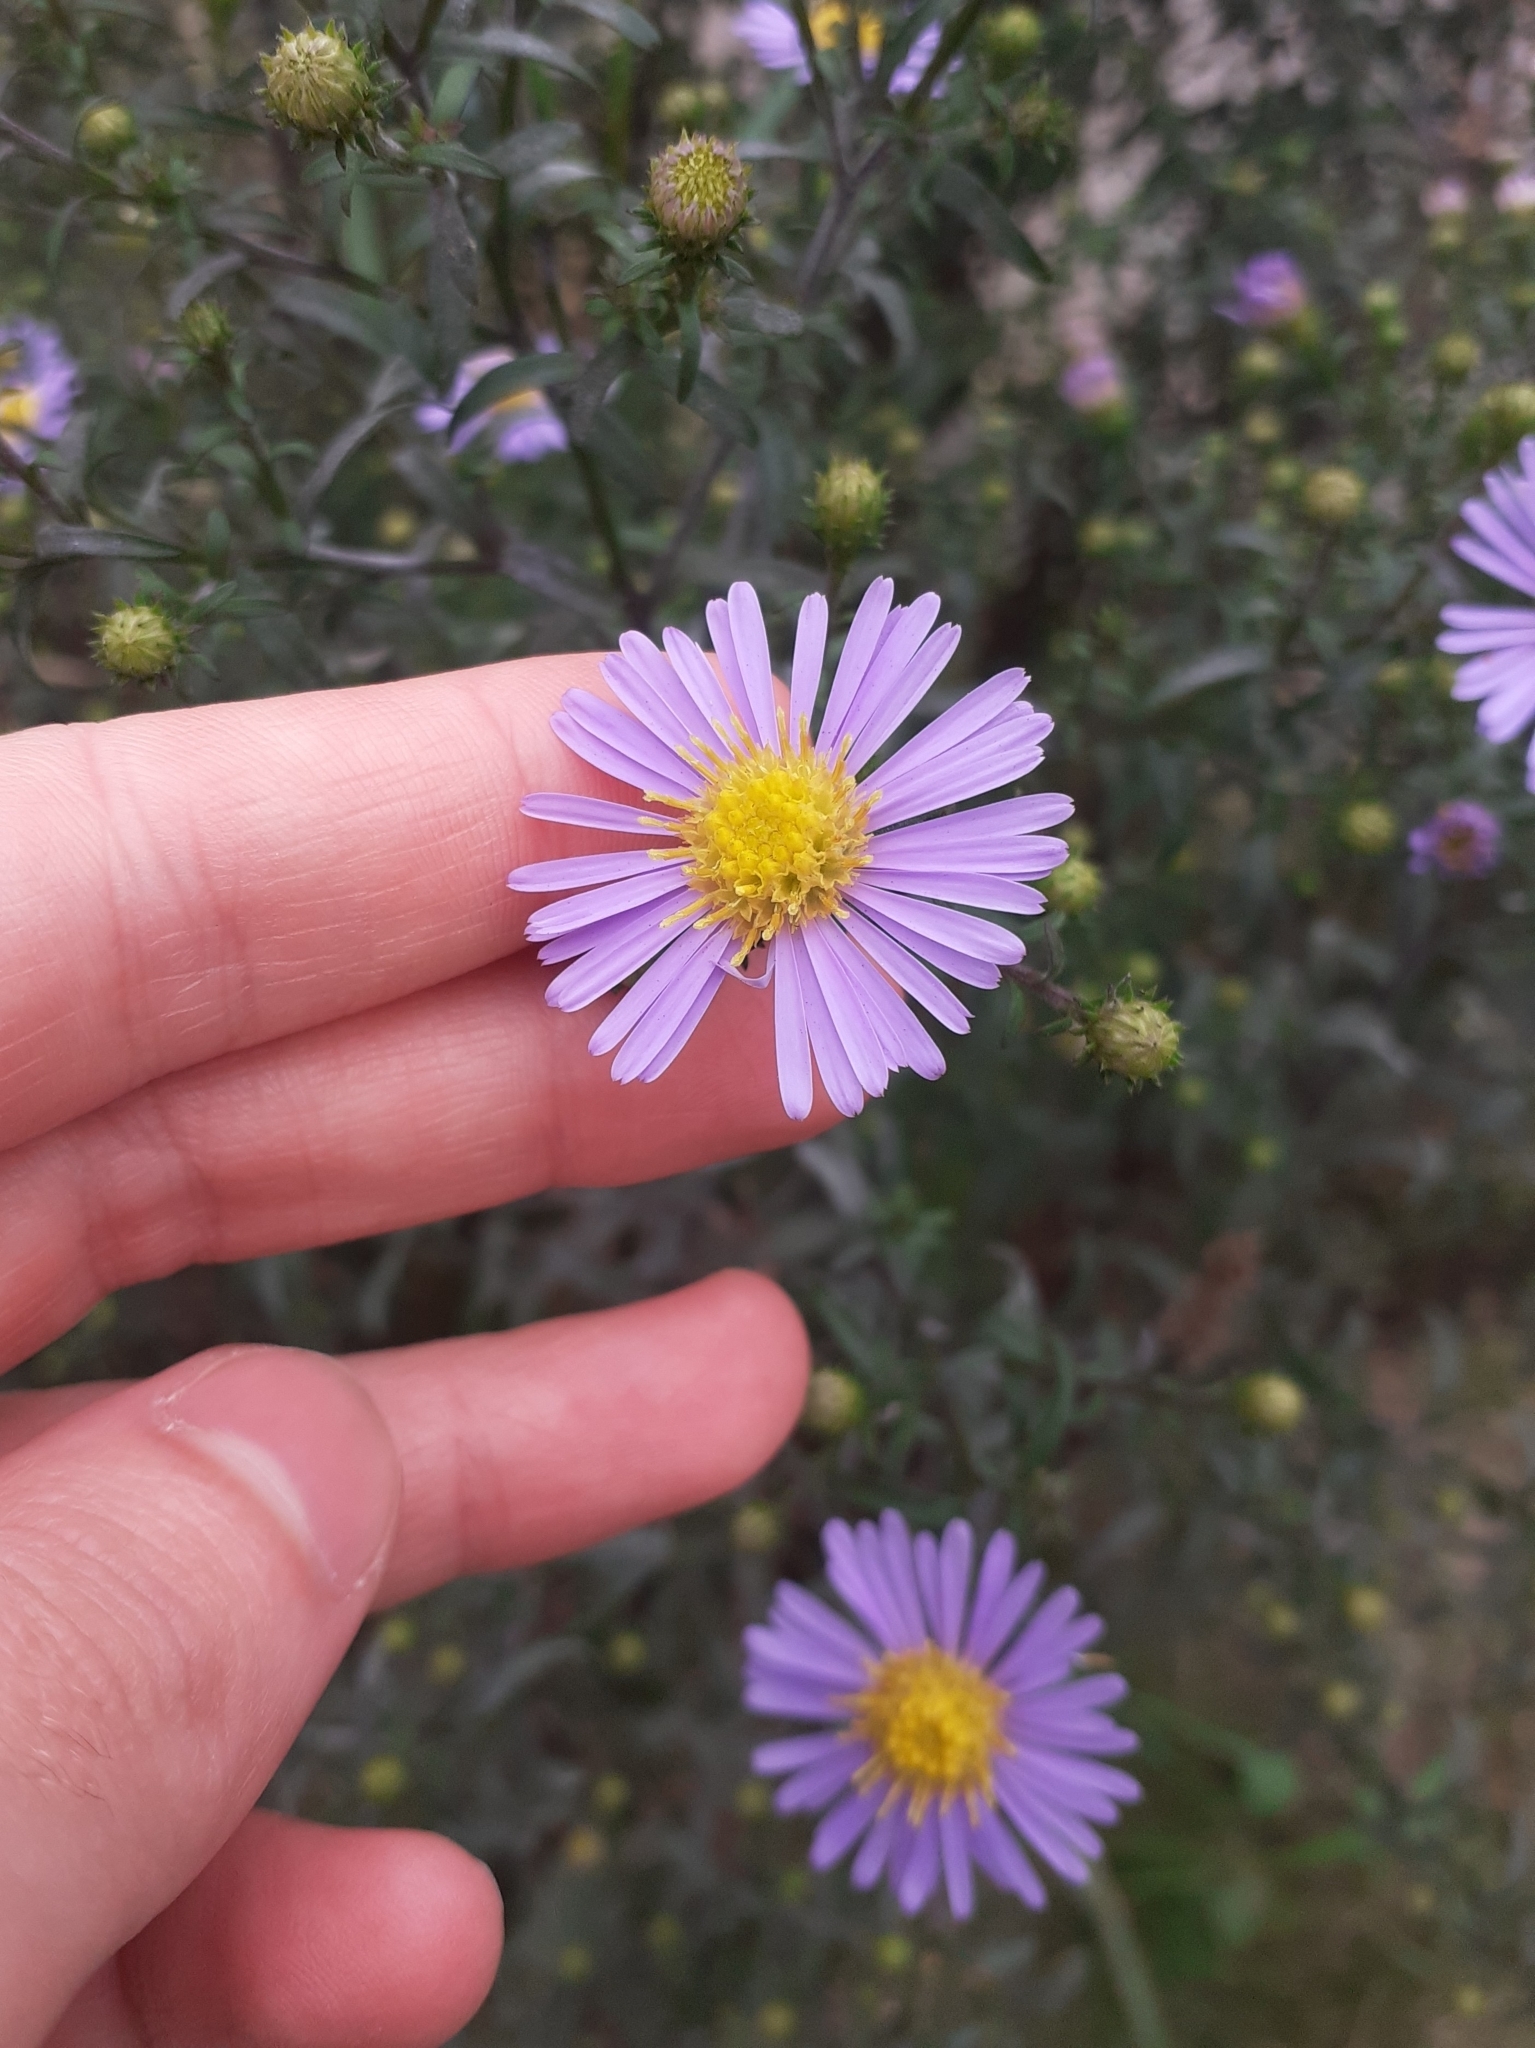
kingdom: Plantae
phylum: Tracheophyta
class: Magnoliopsida
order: Asterales
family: Asteraceae
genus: Symphyotrichum
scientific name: Symphyotrichum novi-belgii
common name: Michaelmas daisy
